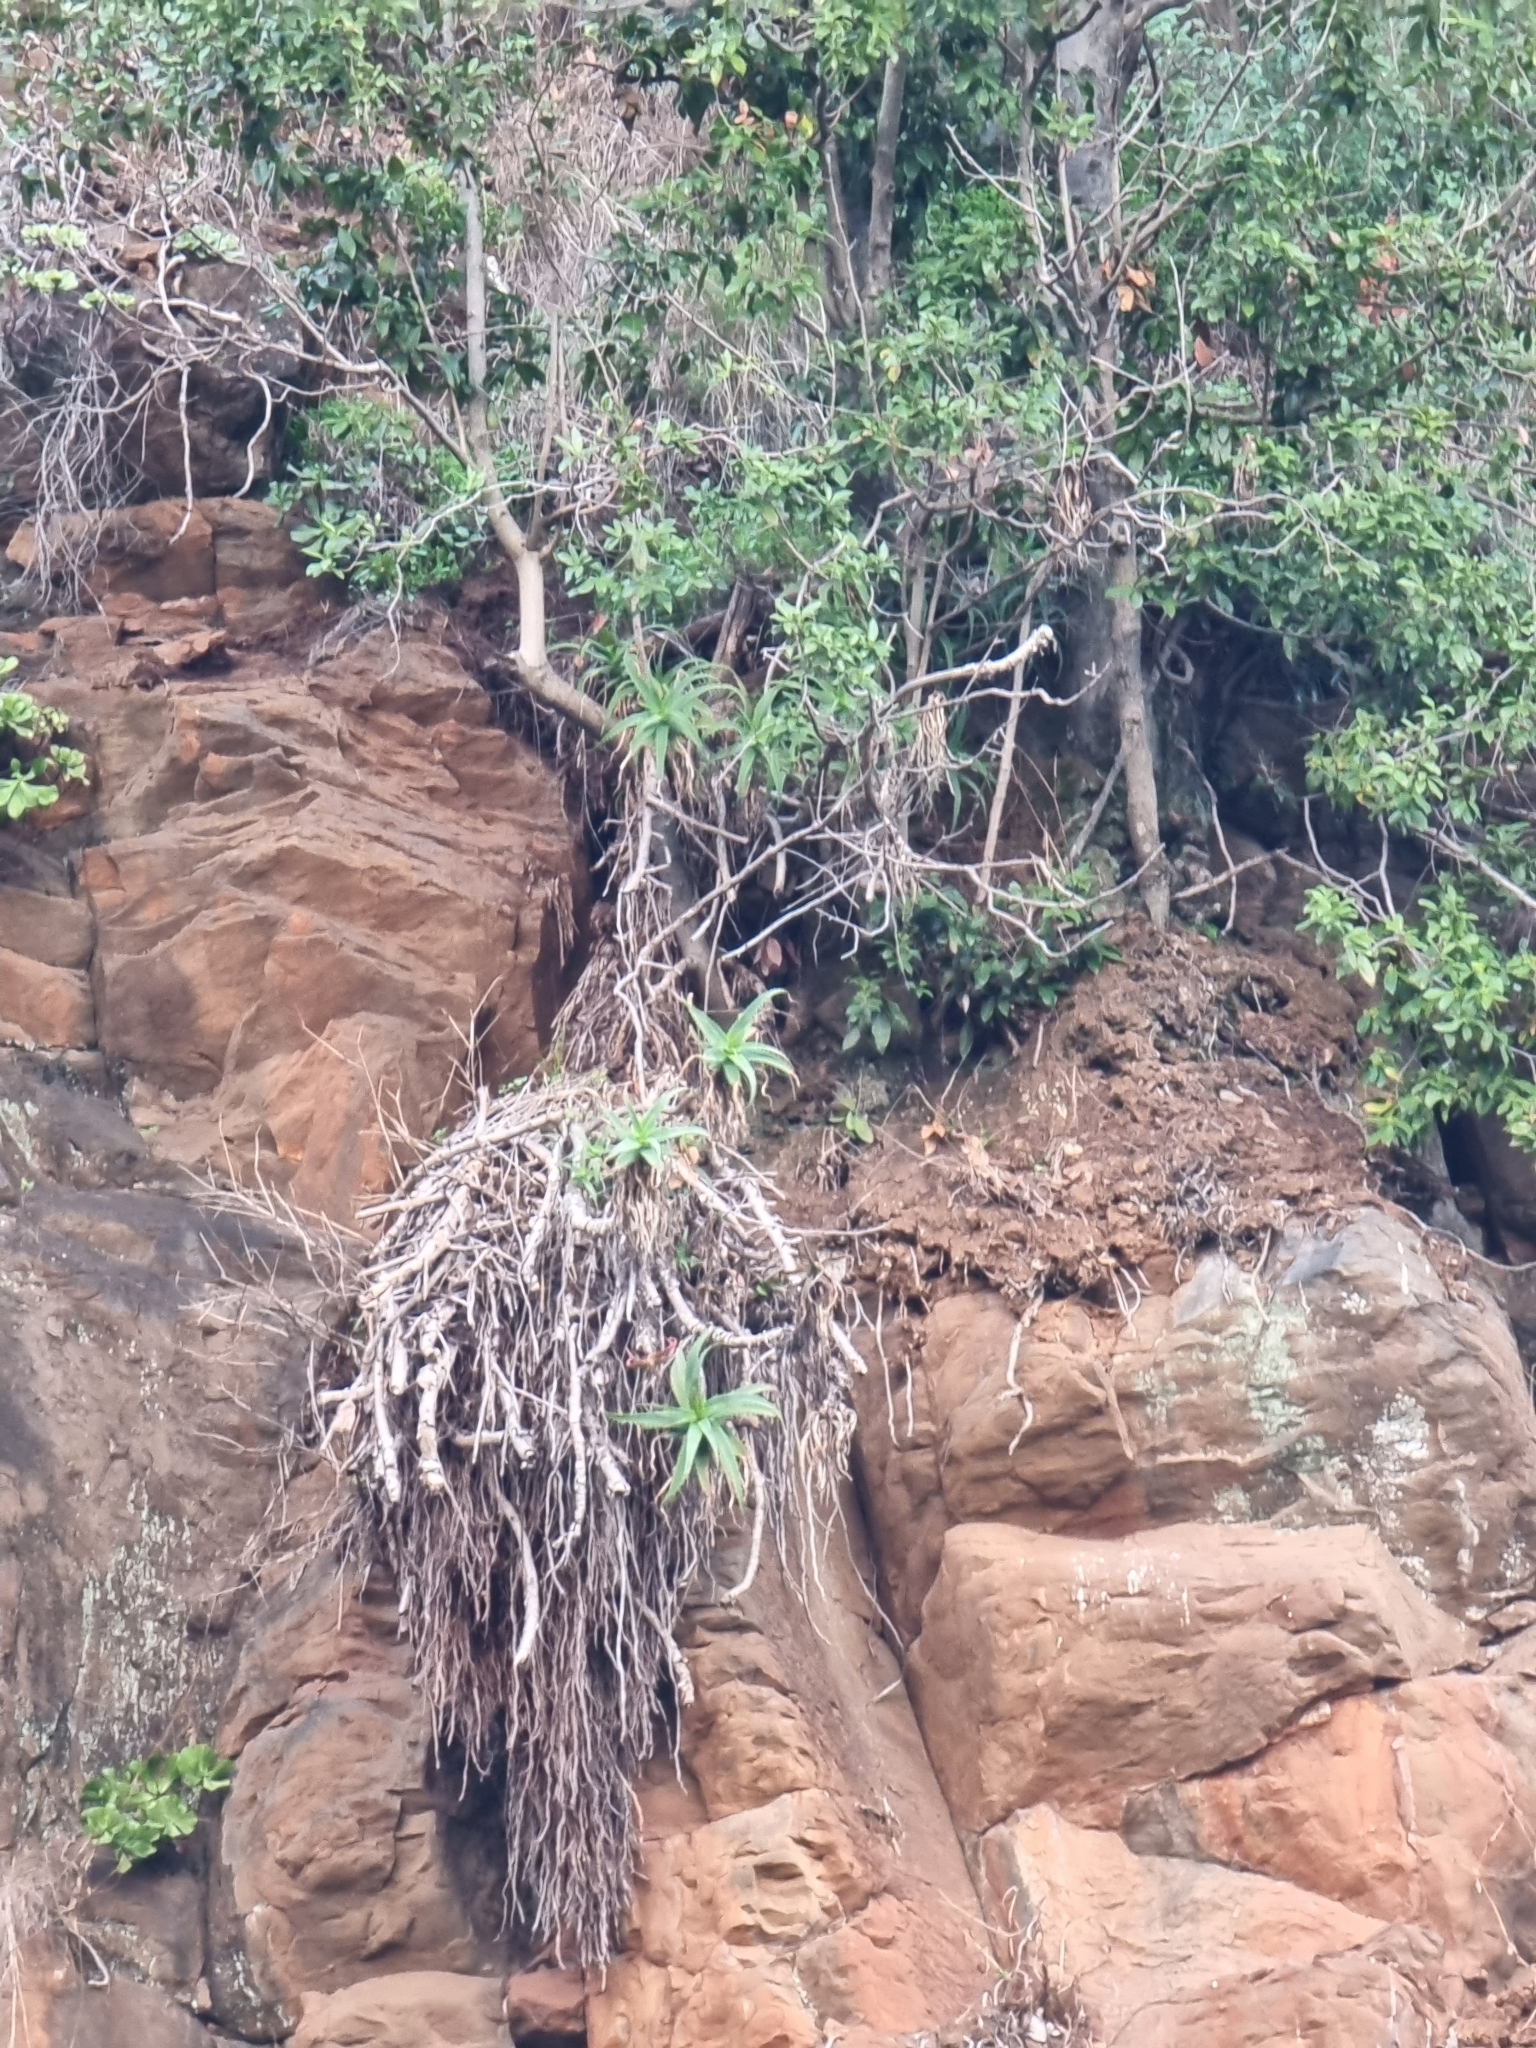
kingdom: Plantae
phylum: Tracheophyta
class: Liliopsida
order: Asparagales
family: Asphodelaceae
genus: Aloe
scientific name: Aloe arborescens
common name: Candelabra aloe
